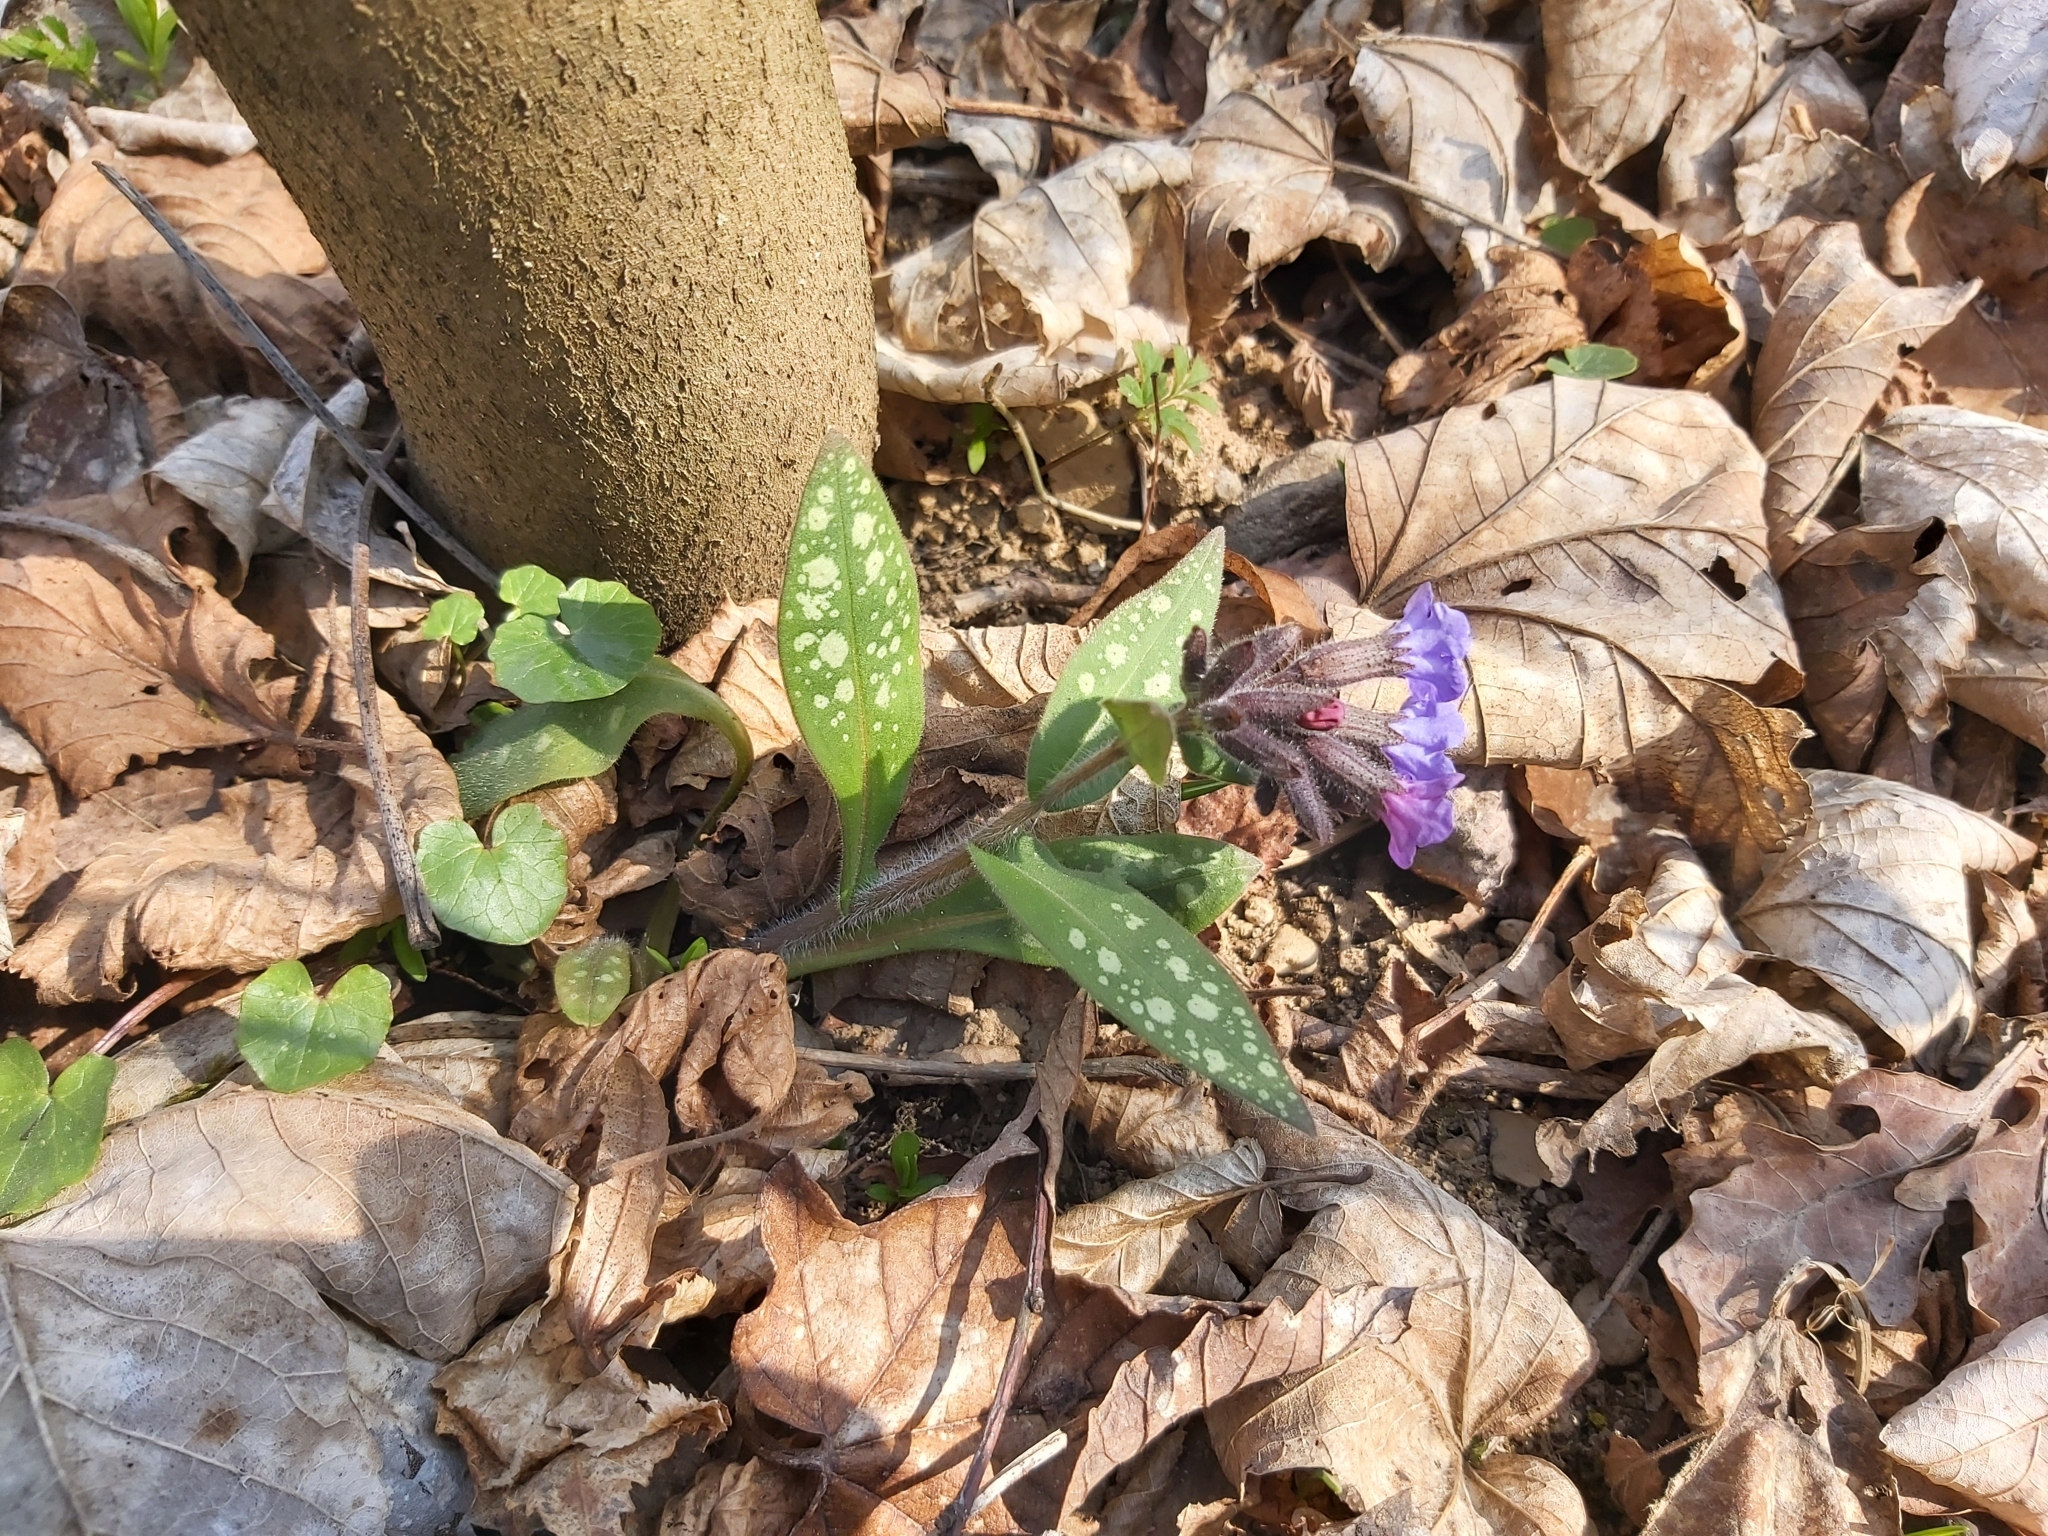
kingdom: Plantae
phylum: Tracheophyta
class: Magnoliopsida
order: Boraginales
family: Boraginaceae
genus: Pulmonaria
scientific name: Pulmonaria officinalis
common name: Lungwort
